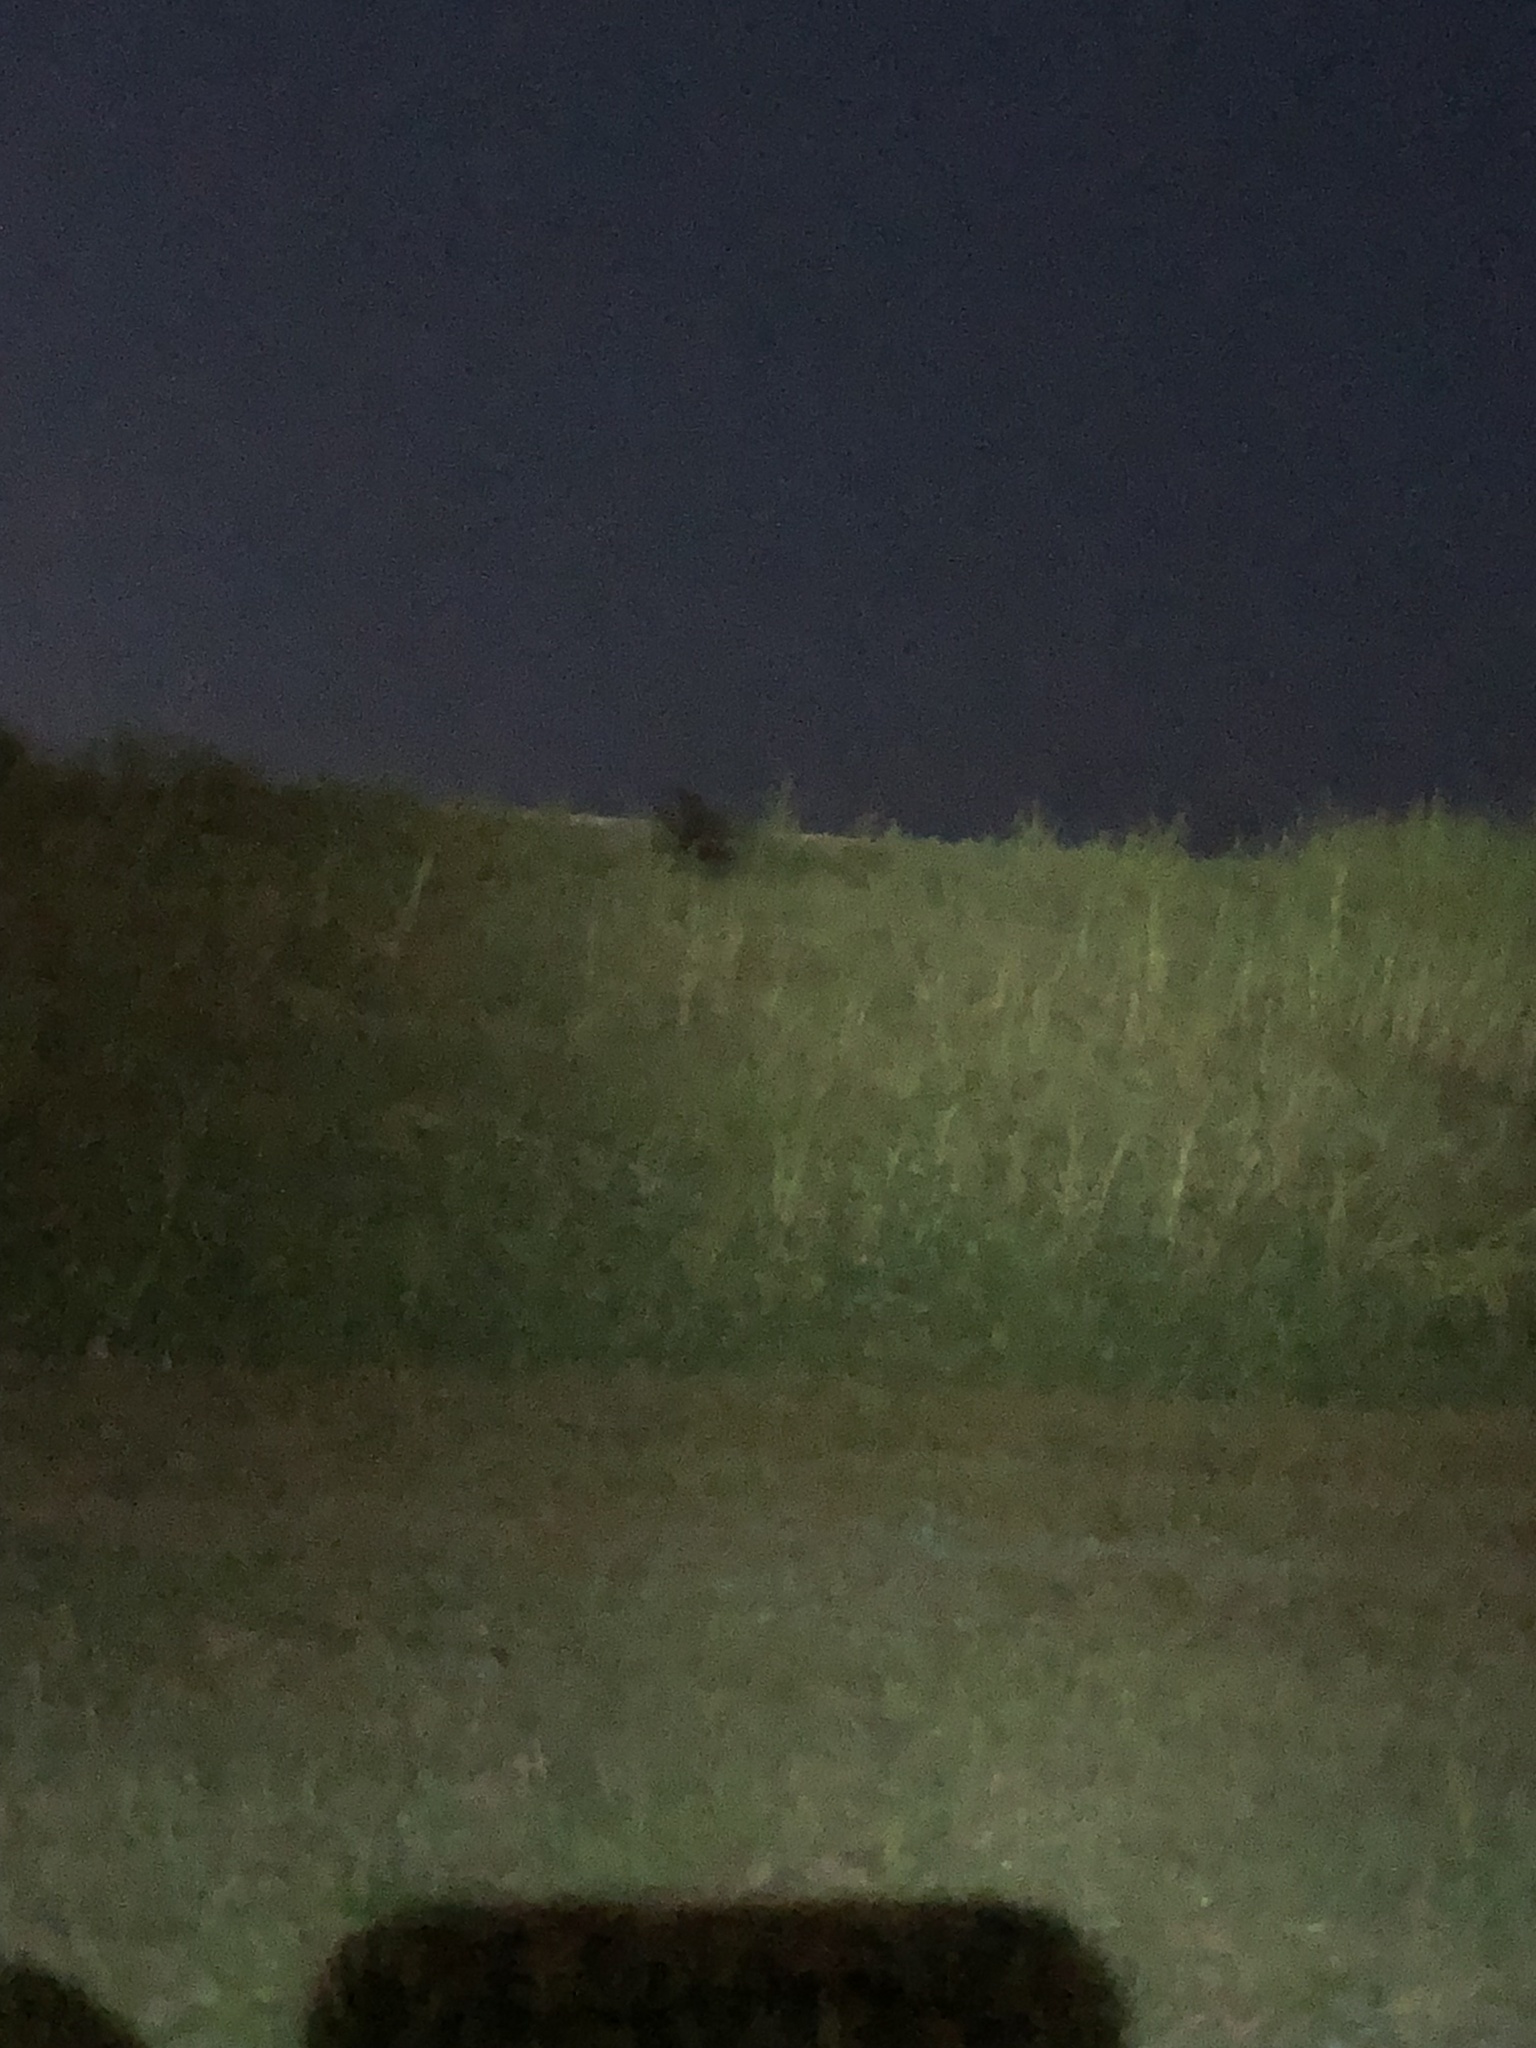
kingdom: Animalia
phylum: Chordata
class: Mammalia
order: Artiodactyla
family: Suidae
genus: Sus
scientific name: Sus scrofa
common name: Wild boar
